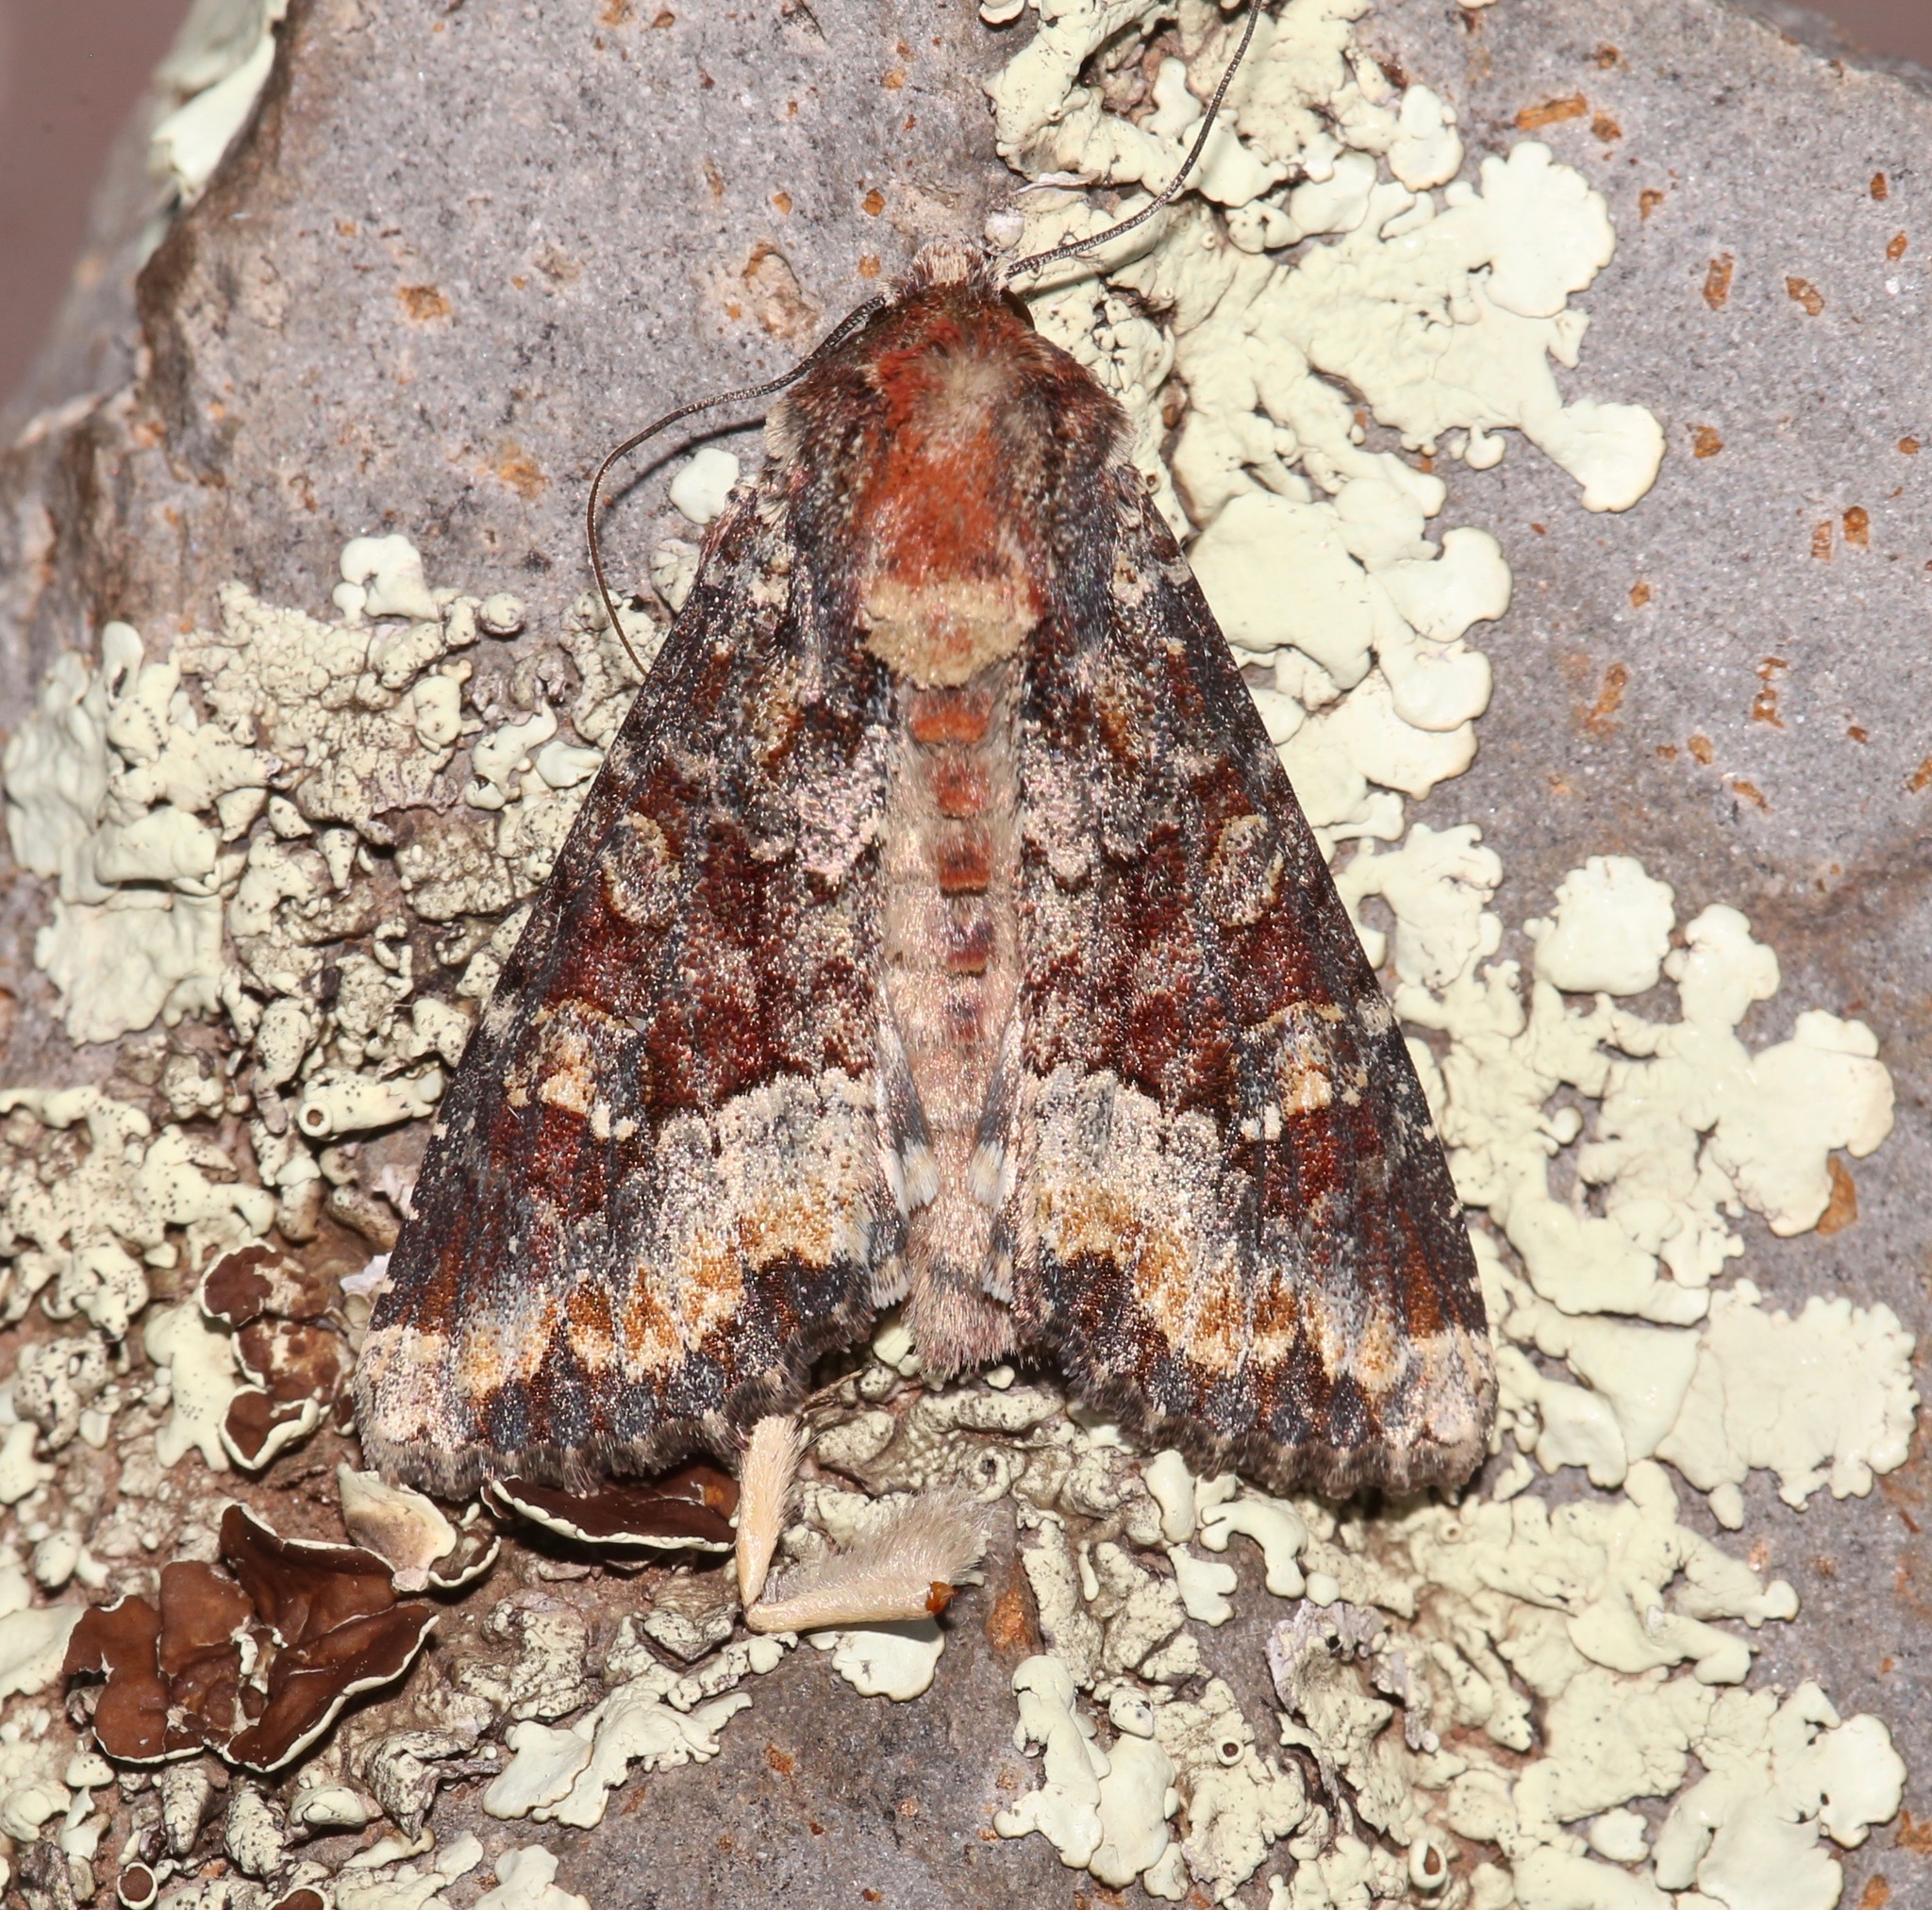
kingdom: Animalia
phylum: Arthropoda
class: Insecta
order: Lepidoptera
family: Noctuidae
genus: Apamea
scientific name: Apamea amputatrix
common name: Yellow-headed cutworm moth
